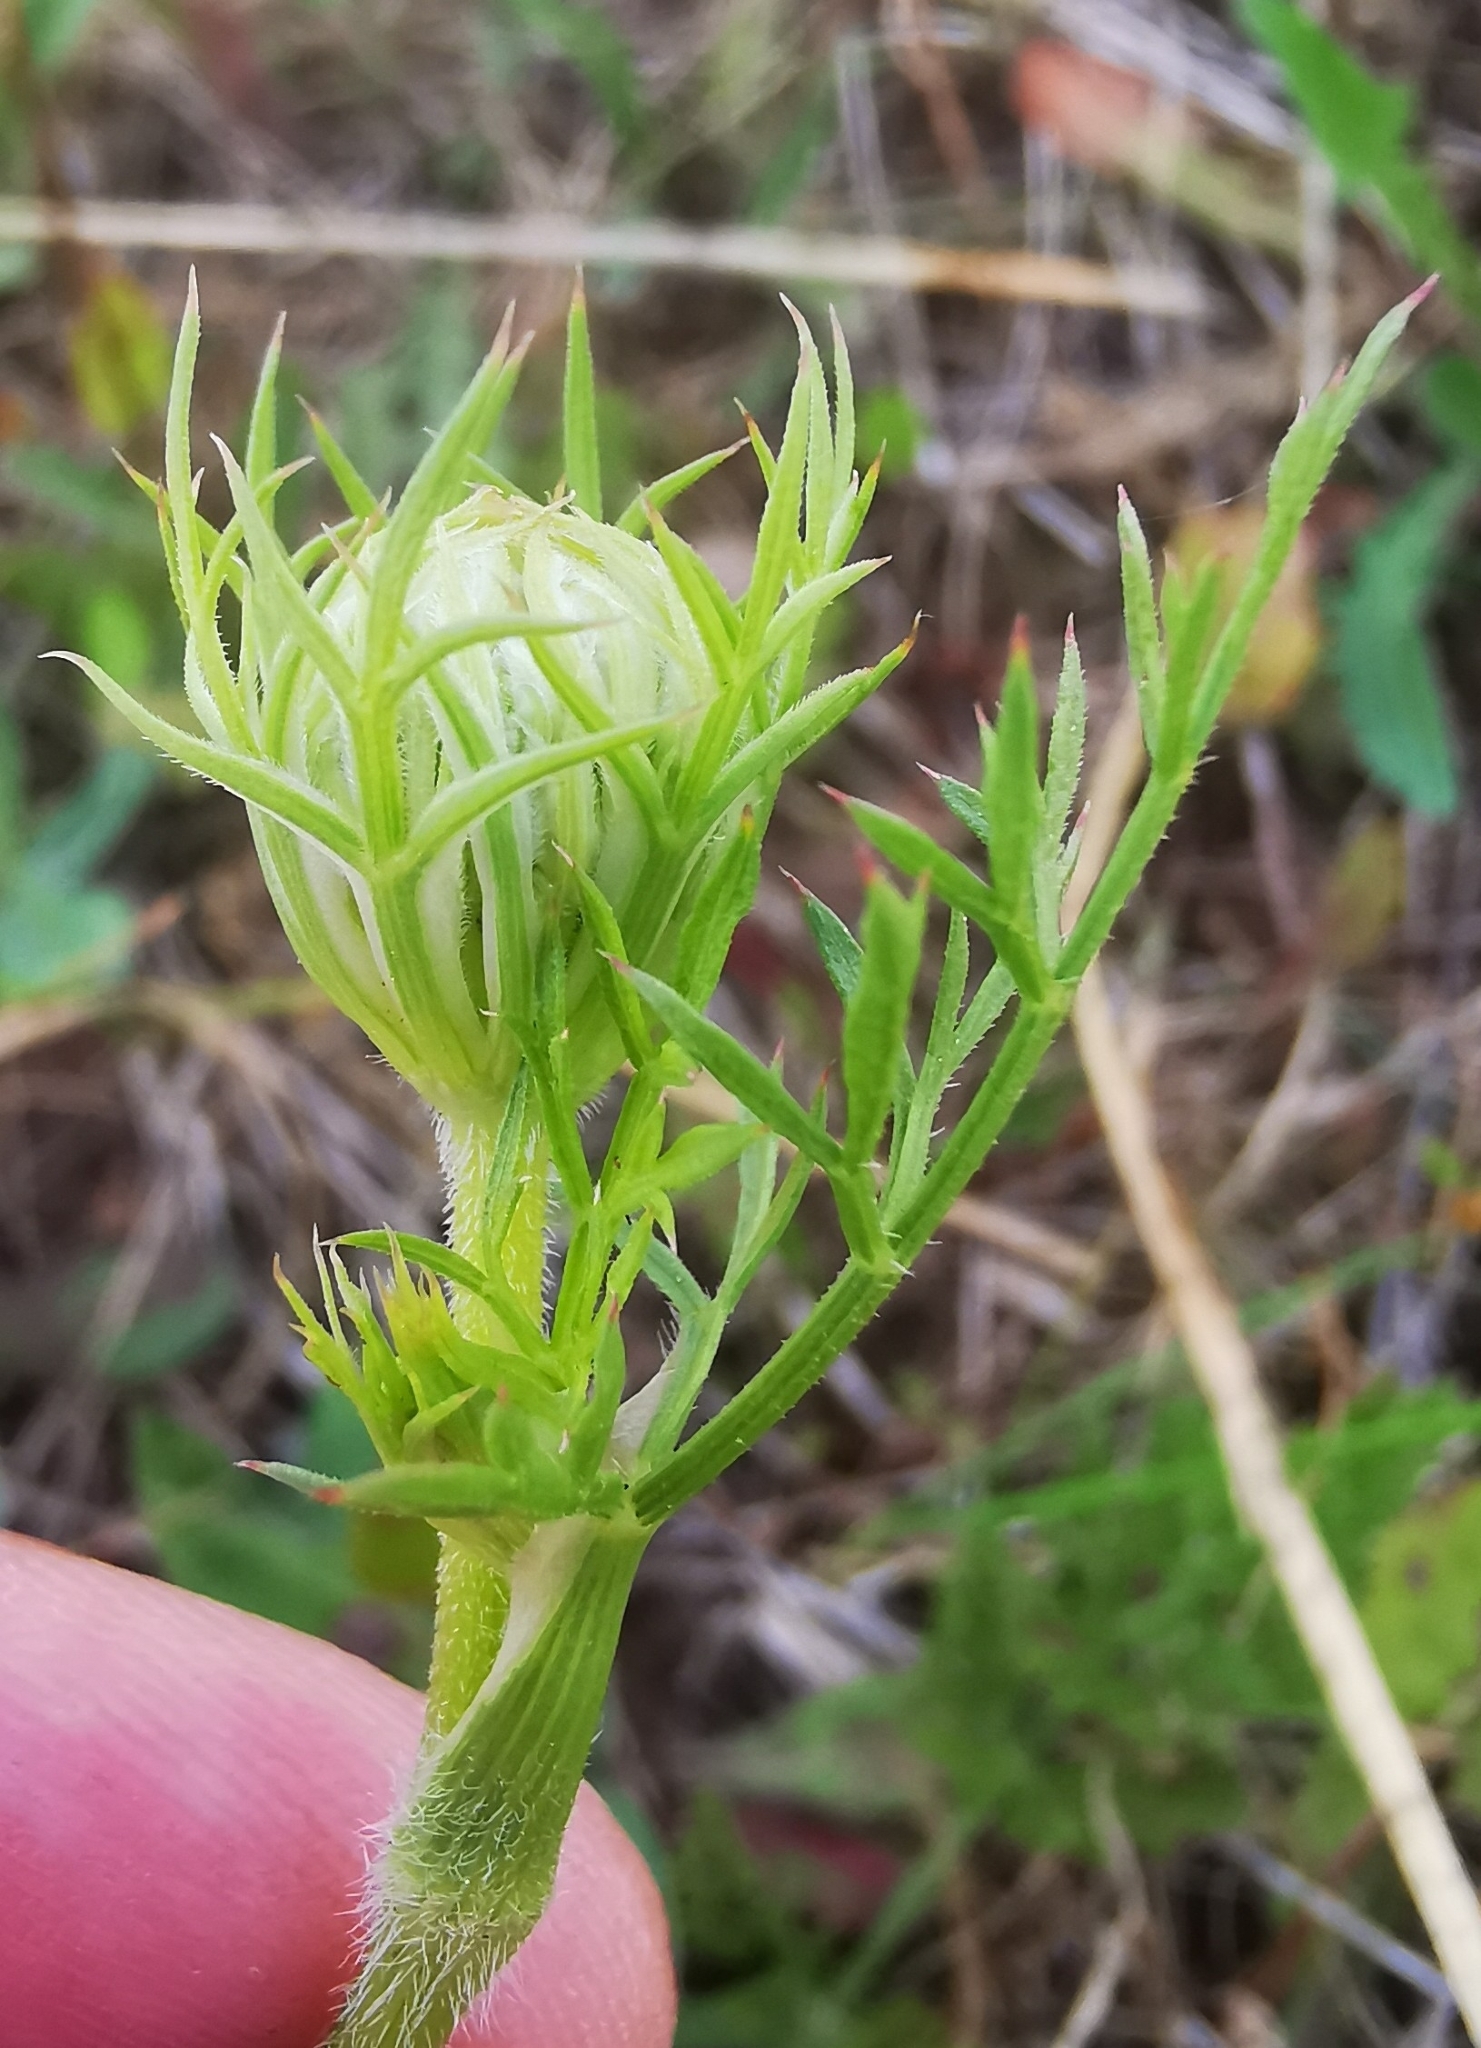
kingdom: Plantae
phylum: Tracheophyta
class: Magnoliopsida
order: Apiales
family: Apiaceae
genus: Daucus
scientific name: Daucus carota
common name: Wild carrot
